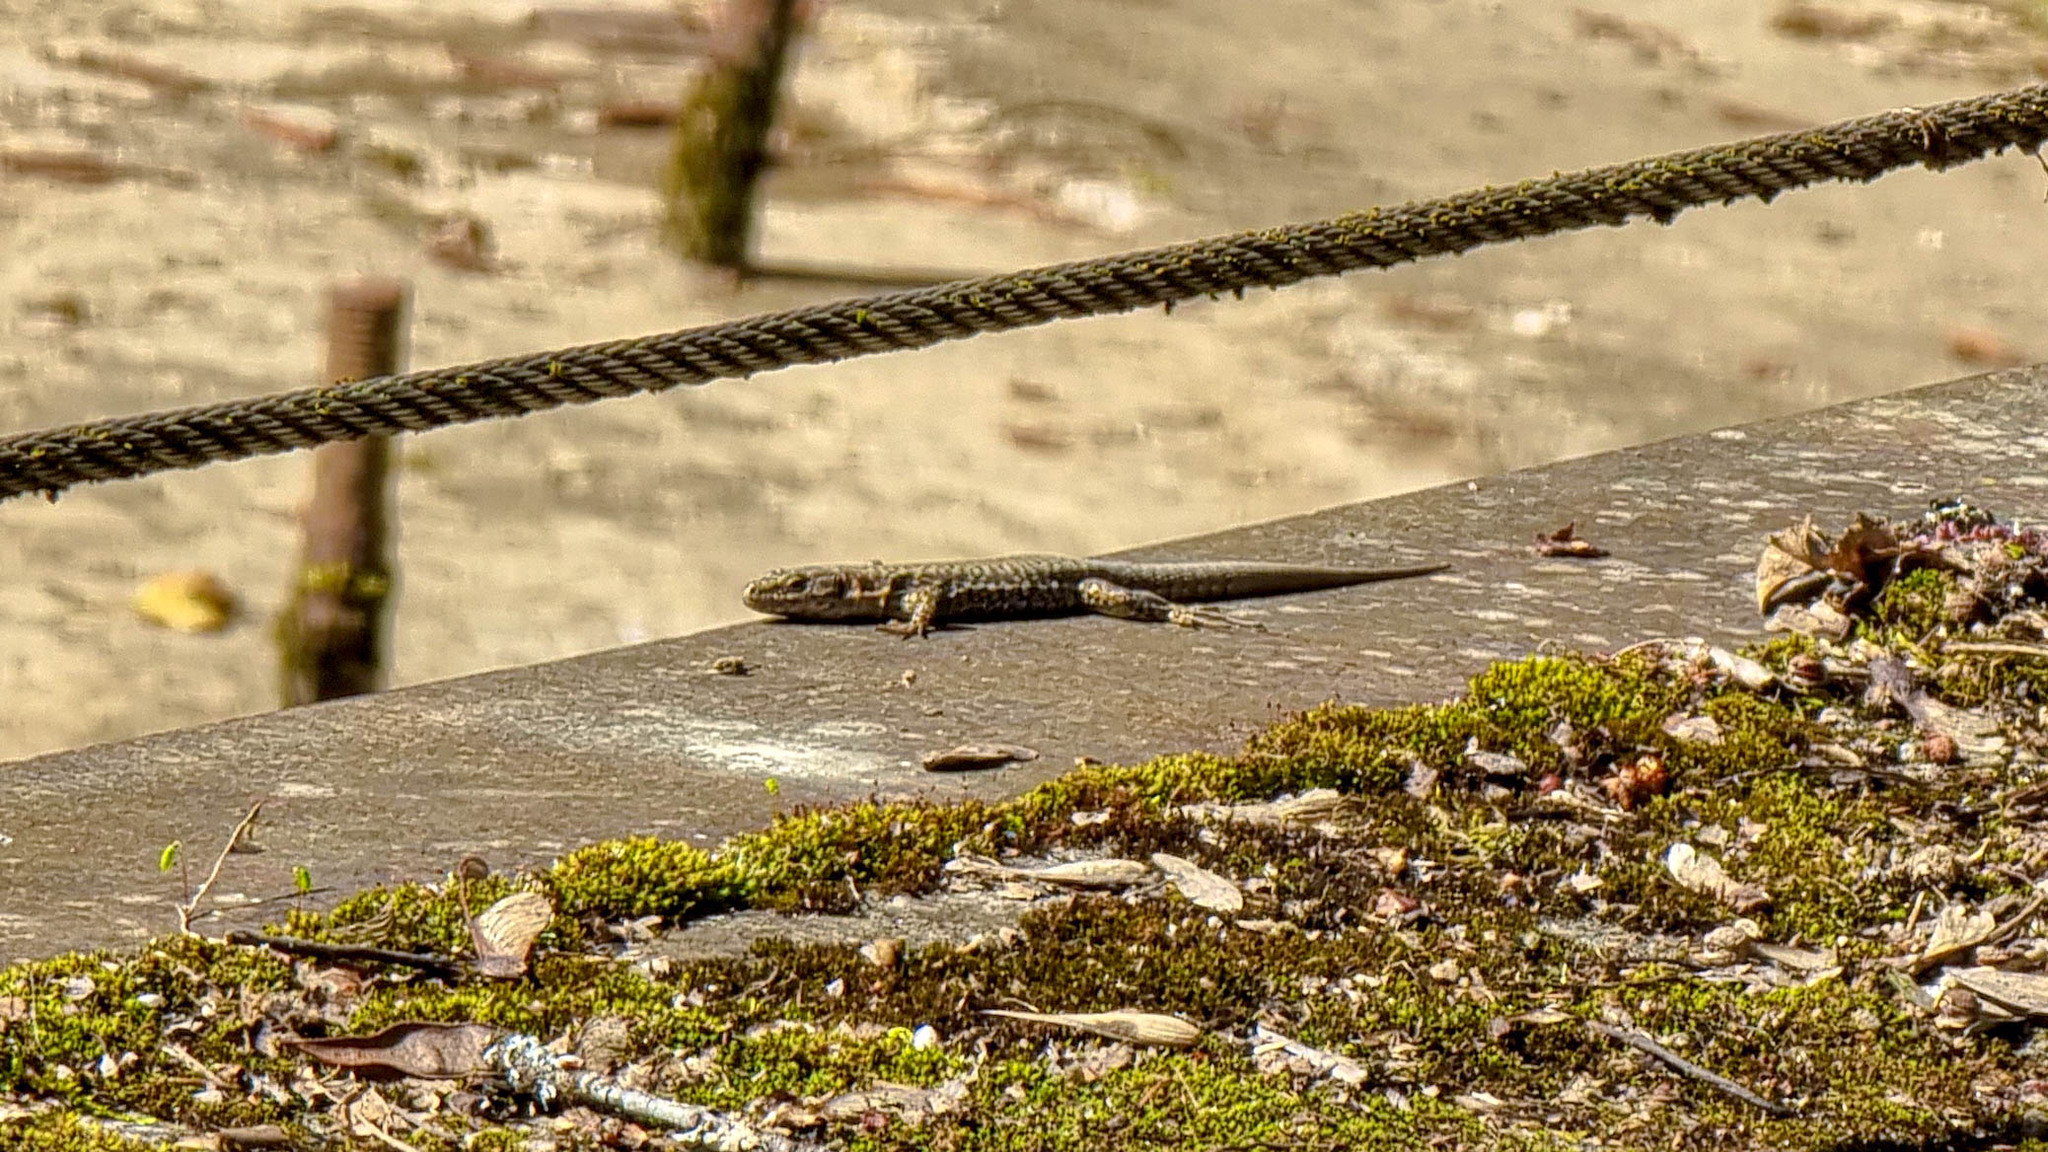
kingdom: Animalia
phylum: Chordata
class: Squamata
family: Lacertidae
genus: Podarcis
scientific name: Podarcis muralis
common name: Common wall lizard
